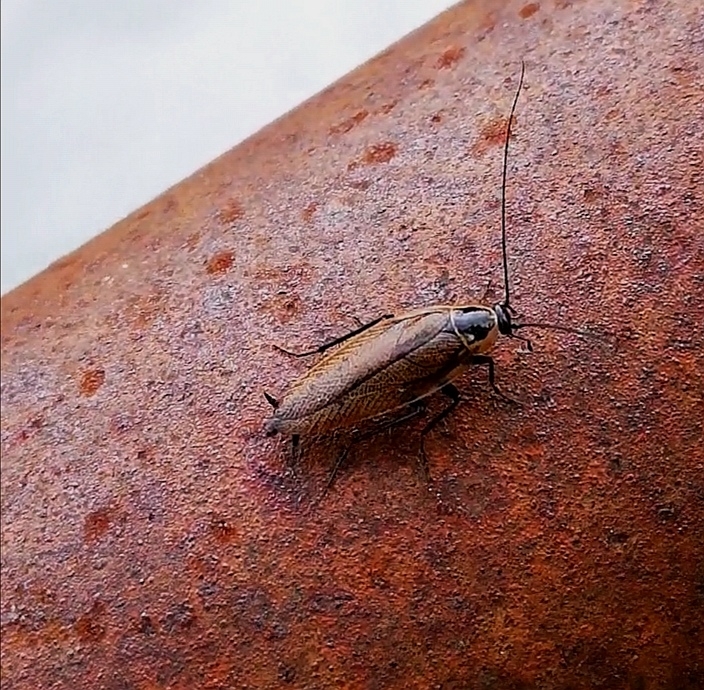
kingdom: Animalia
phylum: Arthropoda
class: Insecta
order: Blattodea
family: Ectobiidae
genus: Ectobius
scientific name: Ectobius sylvestris
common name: Forest cockroach
